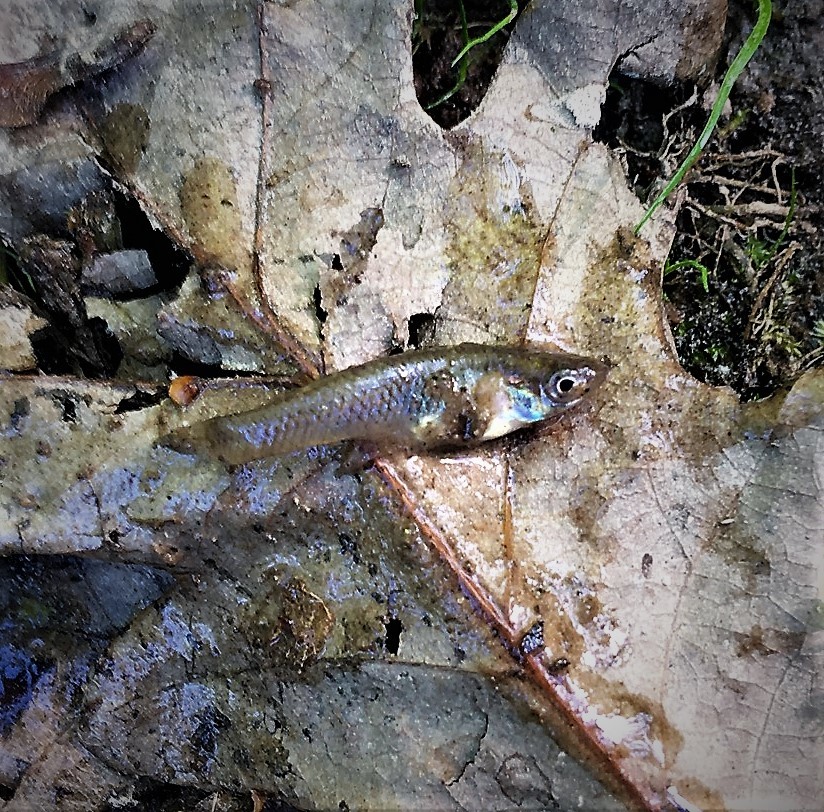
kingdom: Animalia
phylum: Chordata
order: Cyprinodontiformes
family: Poeciliidae
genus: Gambusia
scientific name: Gambusia affinis
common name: Mosquitofish
